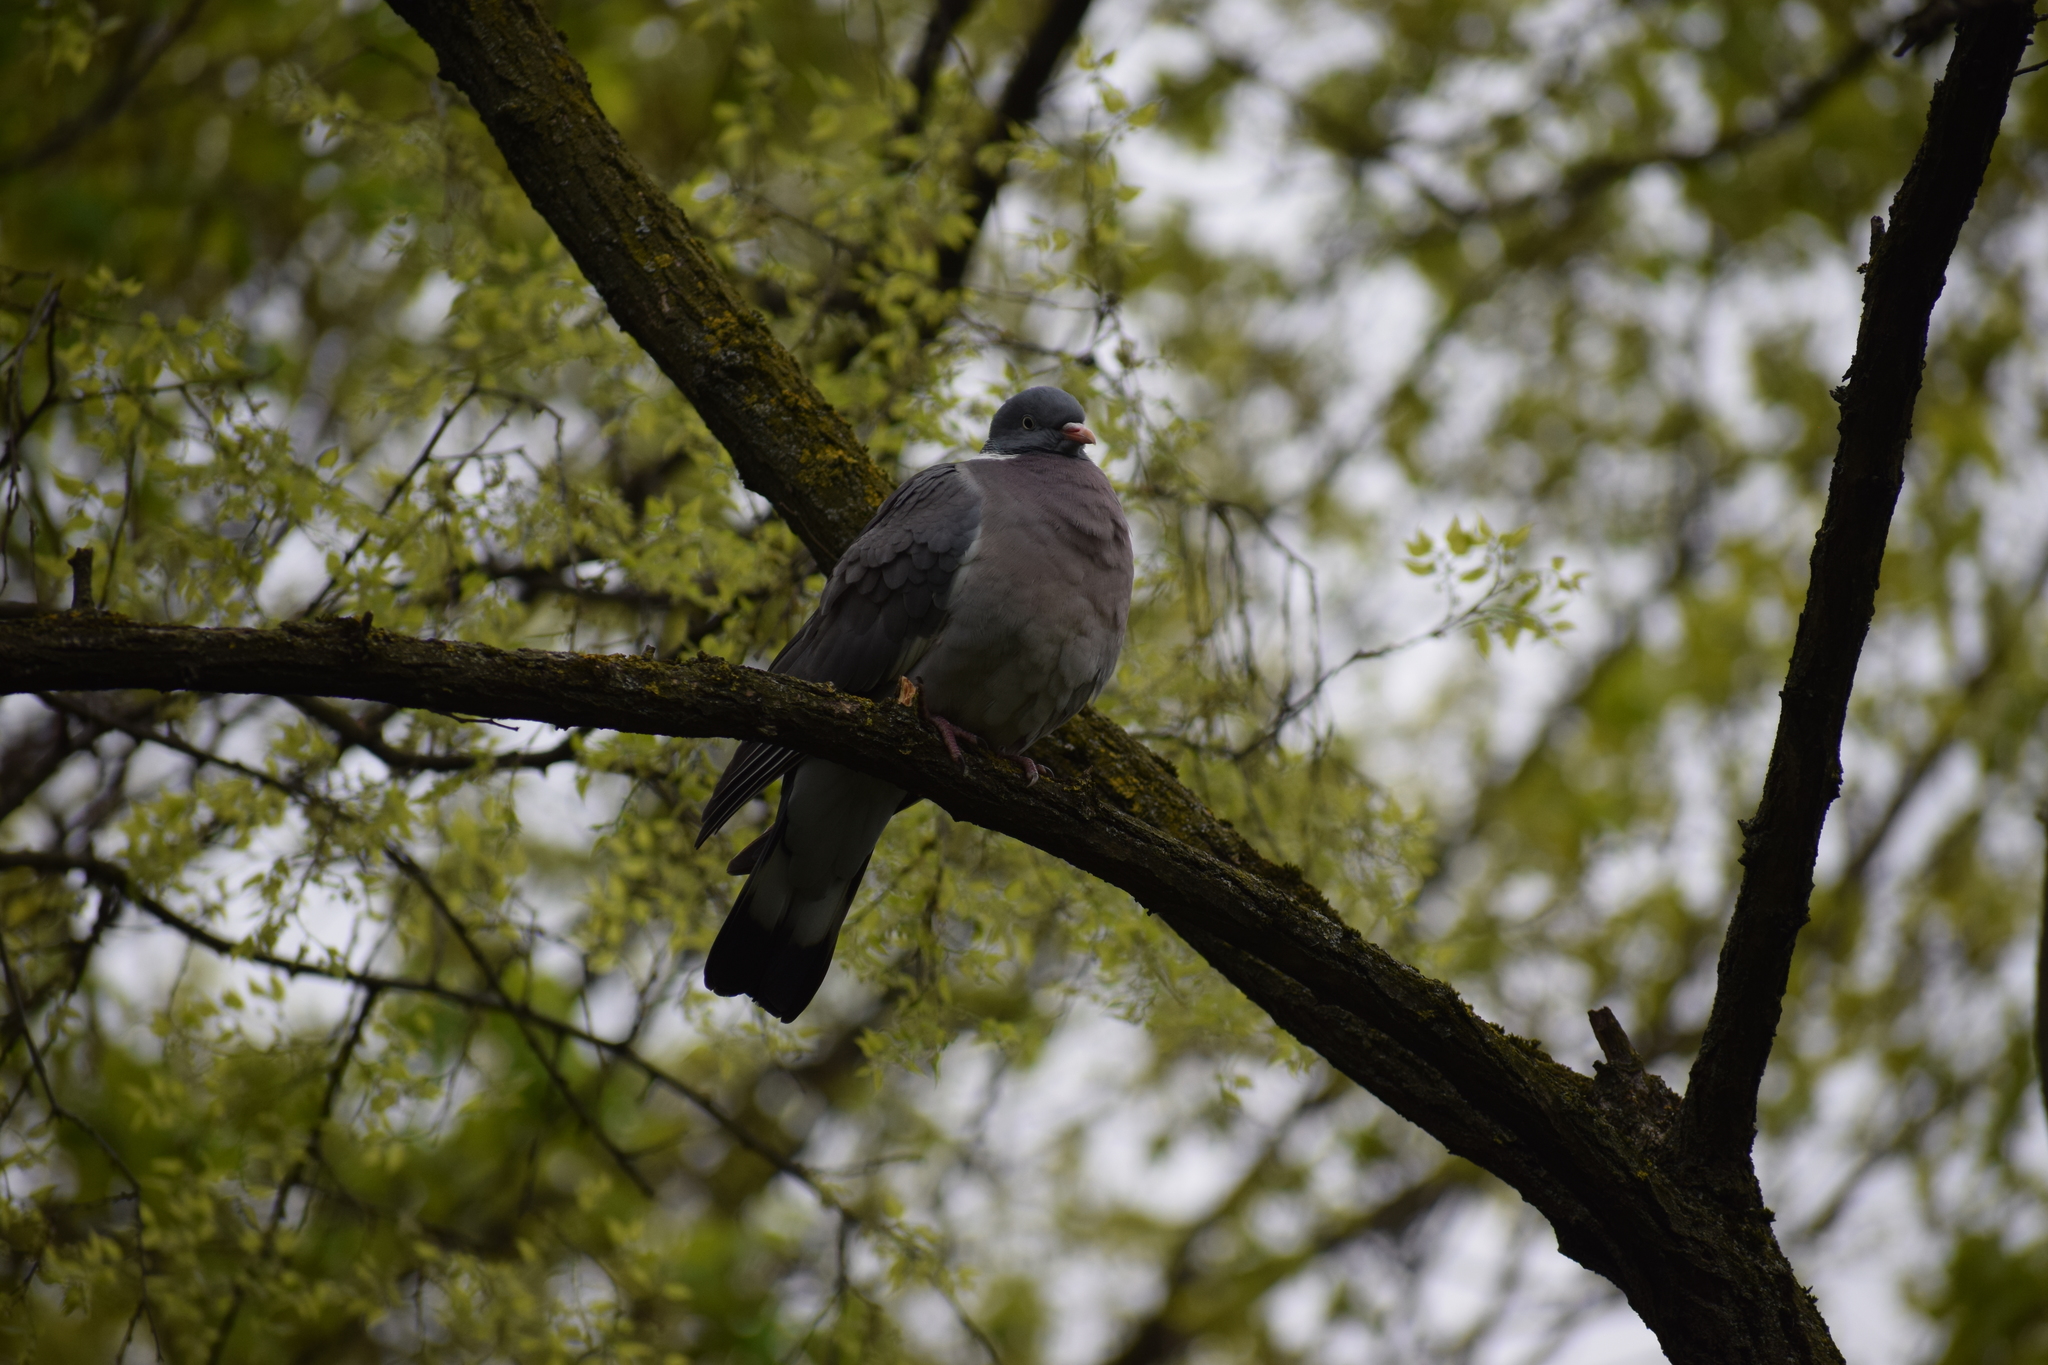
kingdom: Animalia
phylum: Chordata
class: Aves
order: Columbiformes
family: Columbidae
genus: Columba
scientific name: Columba palumbus
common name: Common wood pigeon
